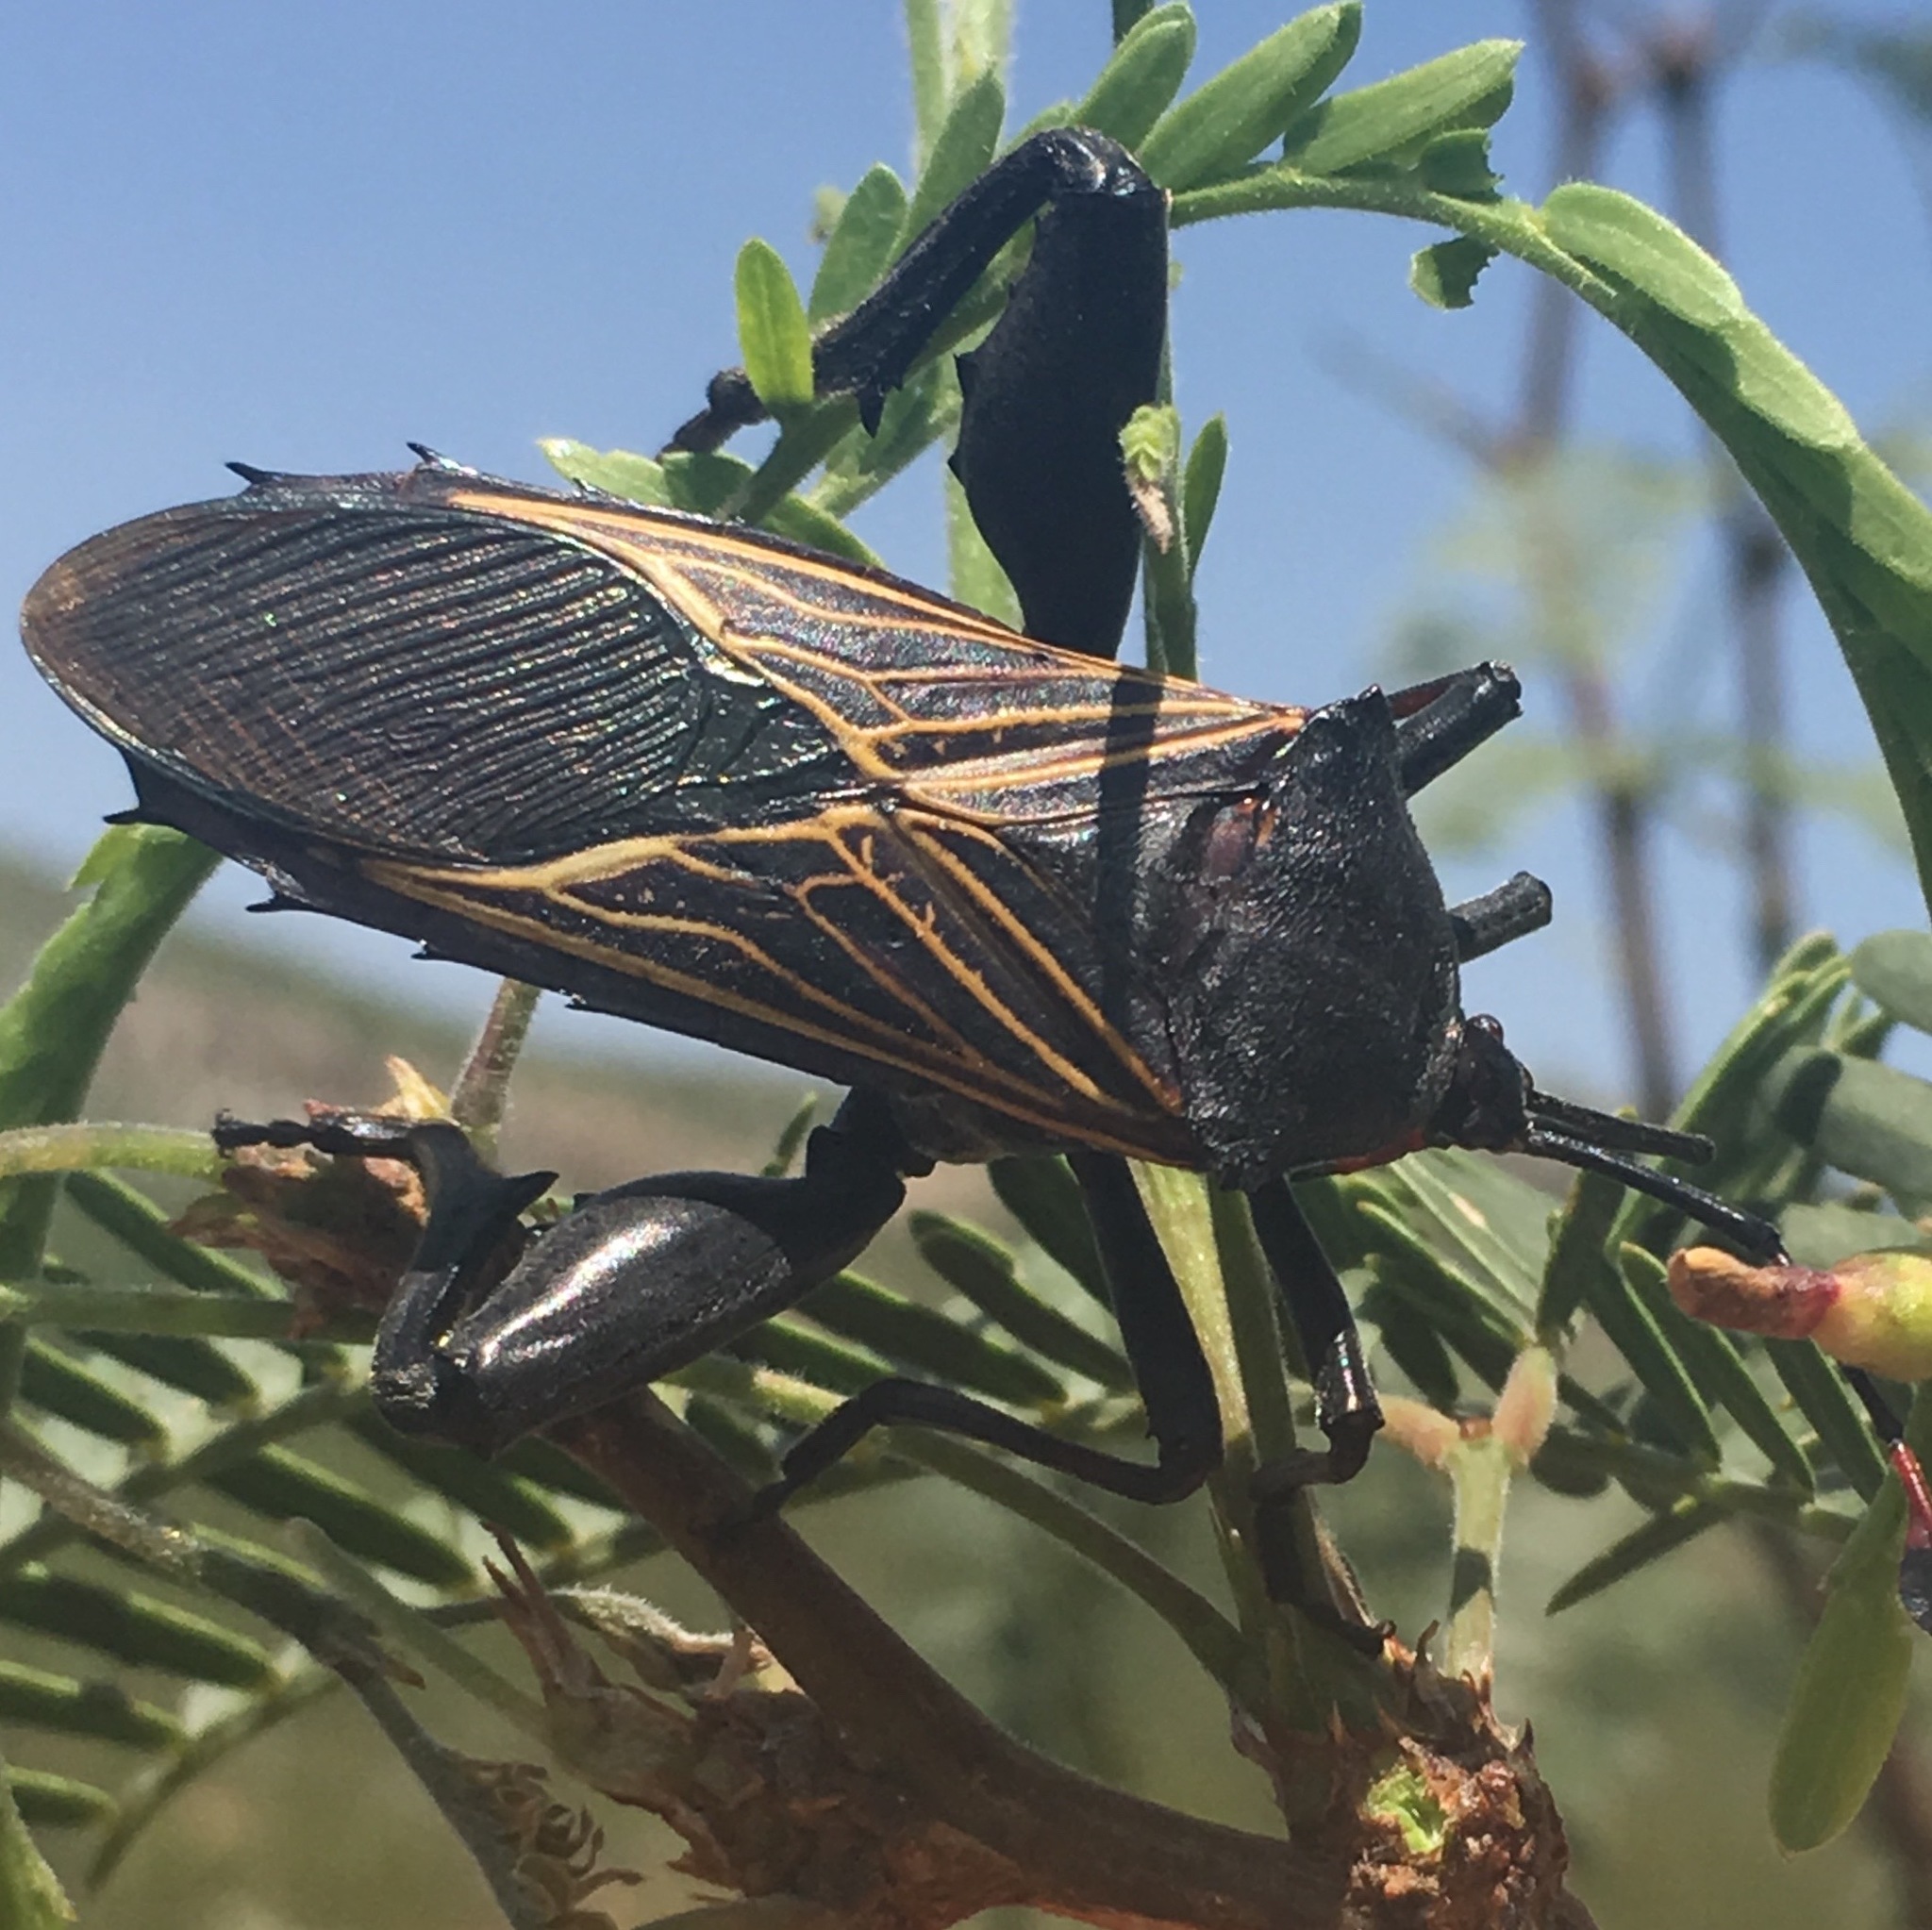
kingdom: Animalia
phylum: Arthropoda
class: Insecta
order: Hemiptera
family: Coreidae
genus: Thasus
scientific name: Thasus neocalifornicus
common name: Giant mesquite bug
